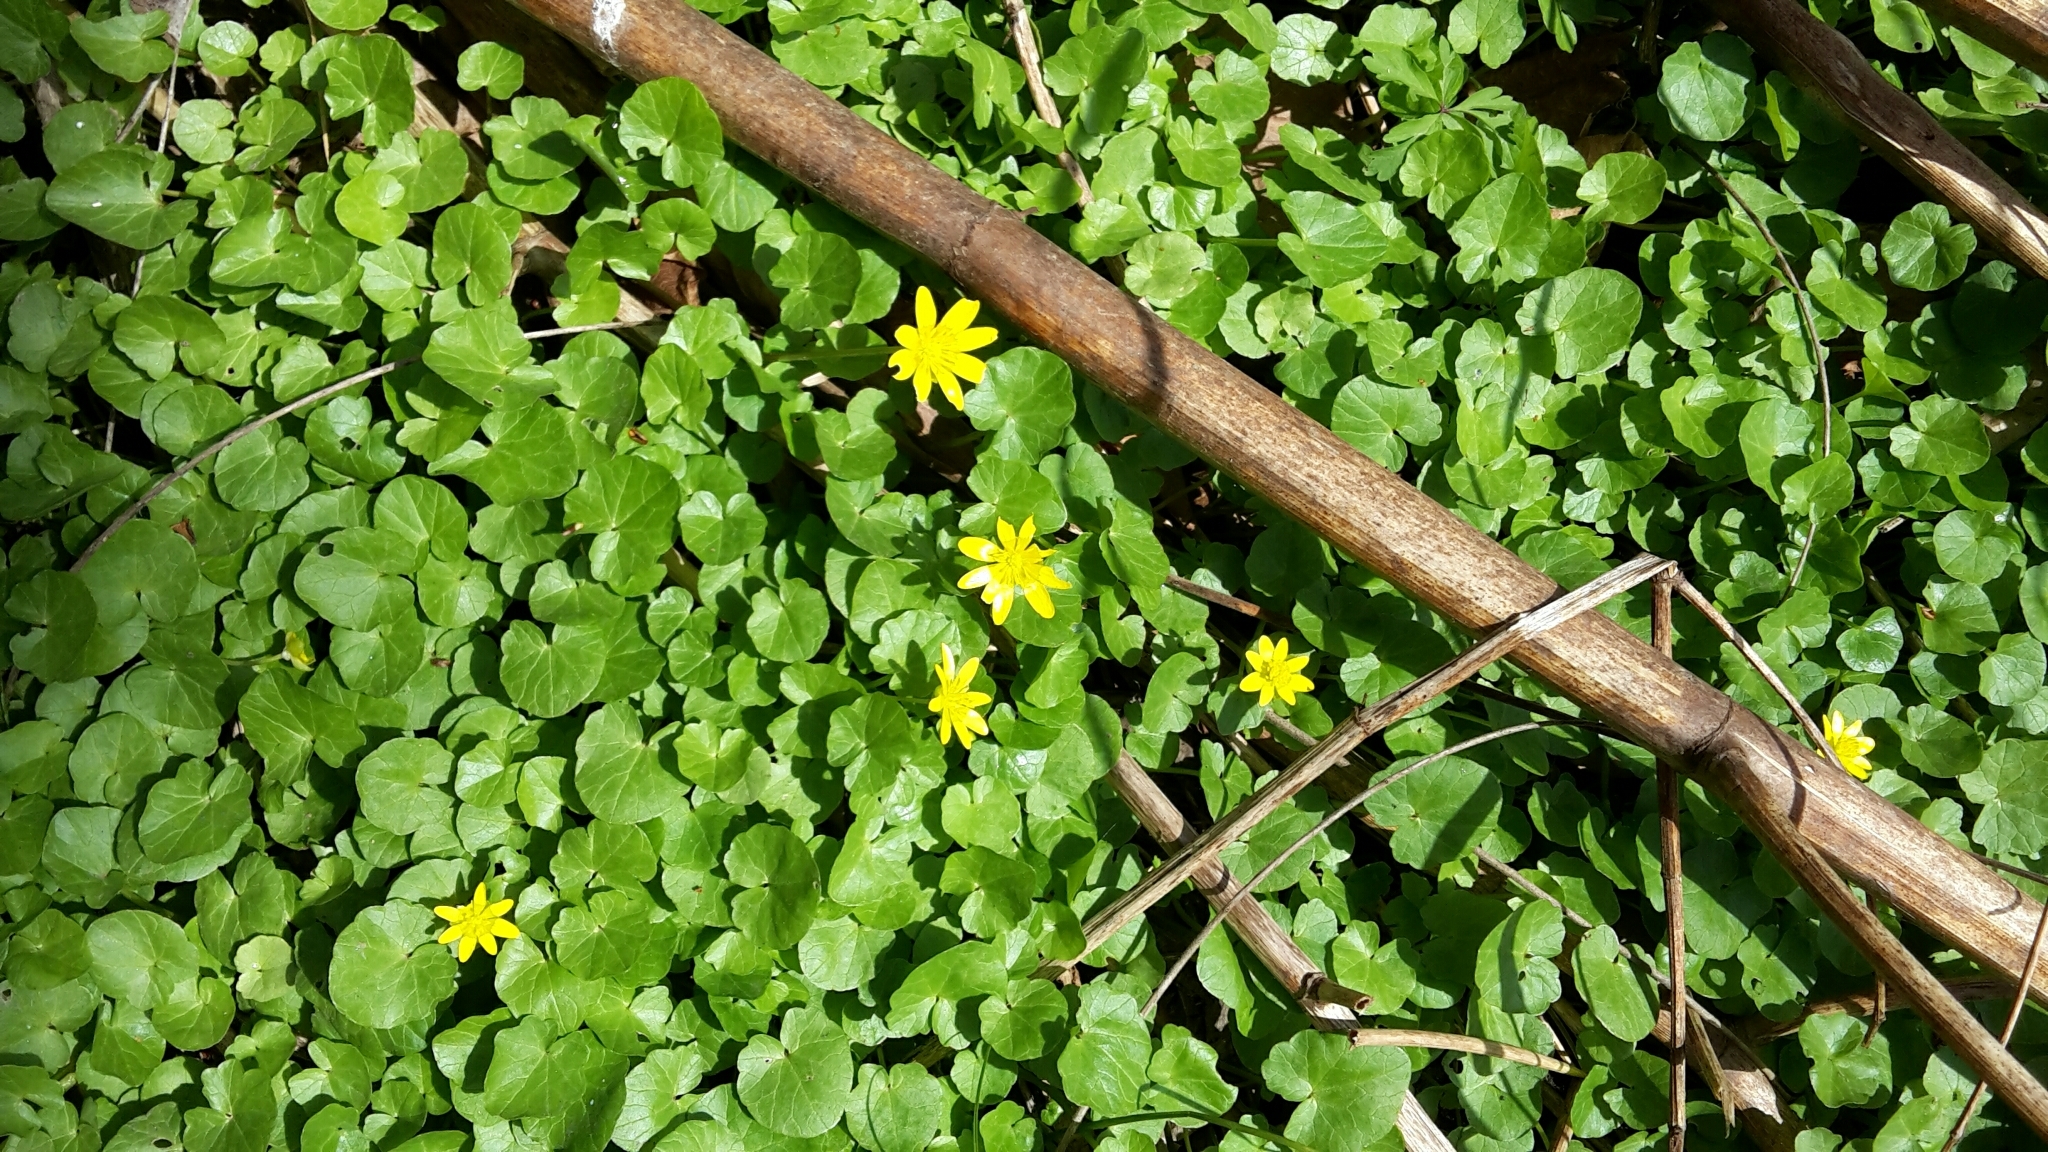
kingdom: Plantae
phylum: Tracheophyta
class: Magnoliopsida
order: Ranunculales
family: Ranunculaceae
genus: Ficaria
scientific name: Ficaria verna
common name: Lesser celandine
